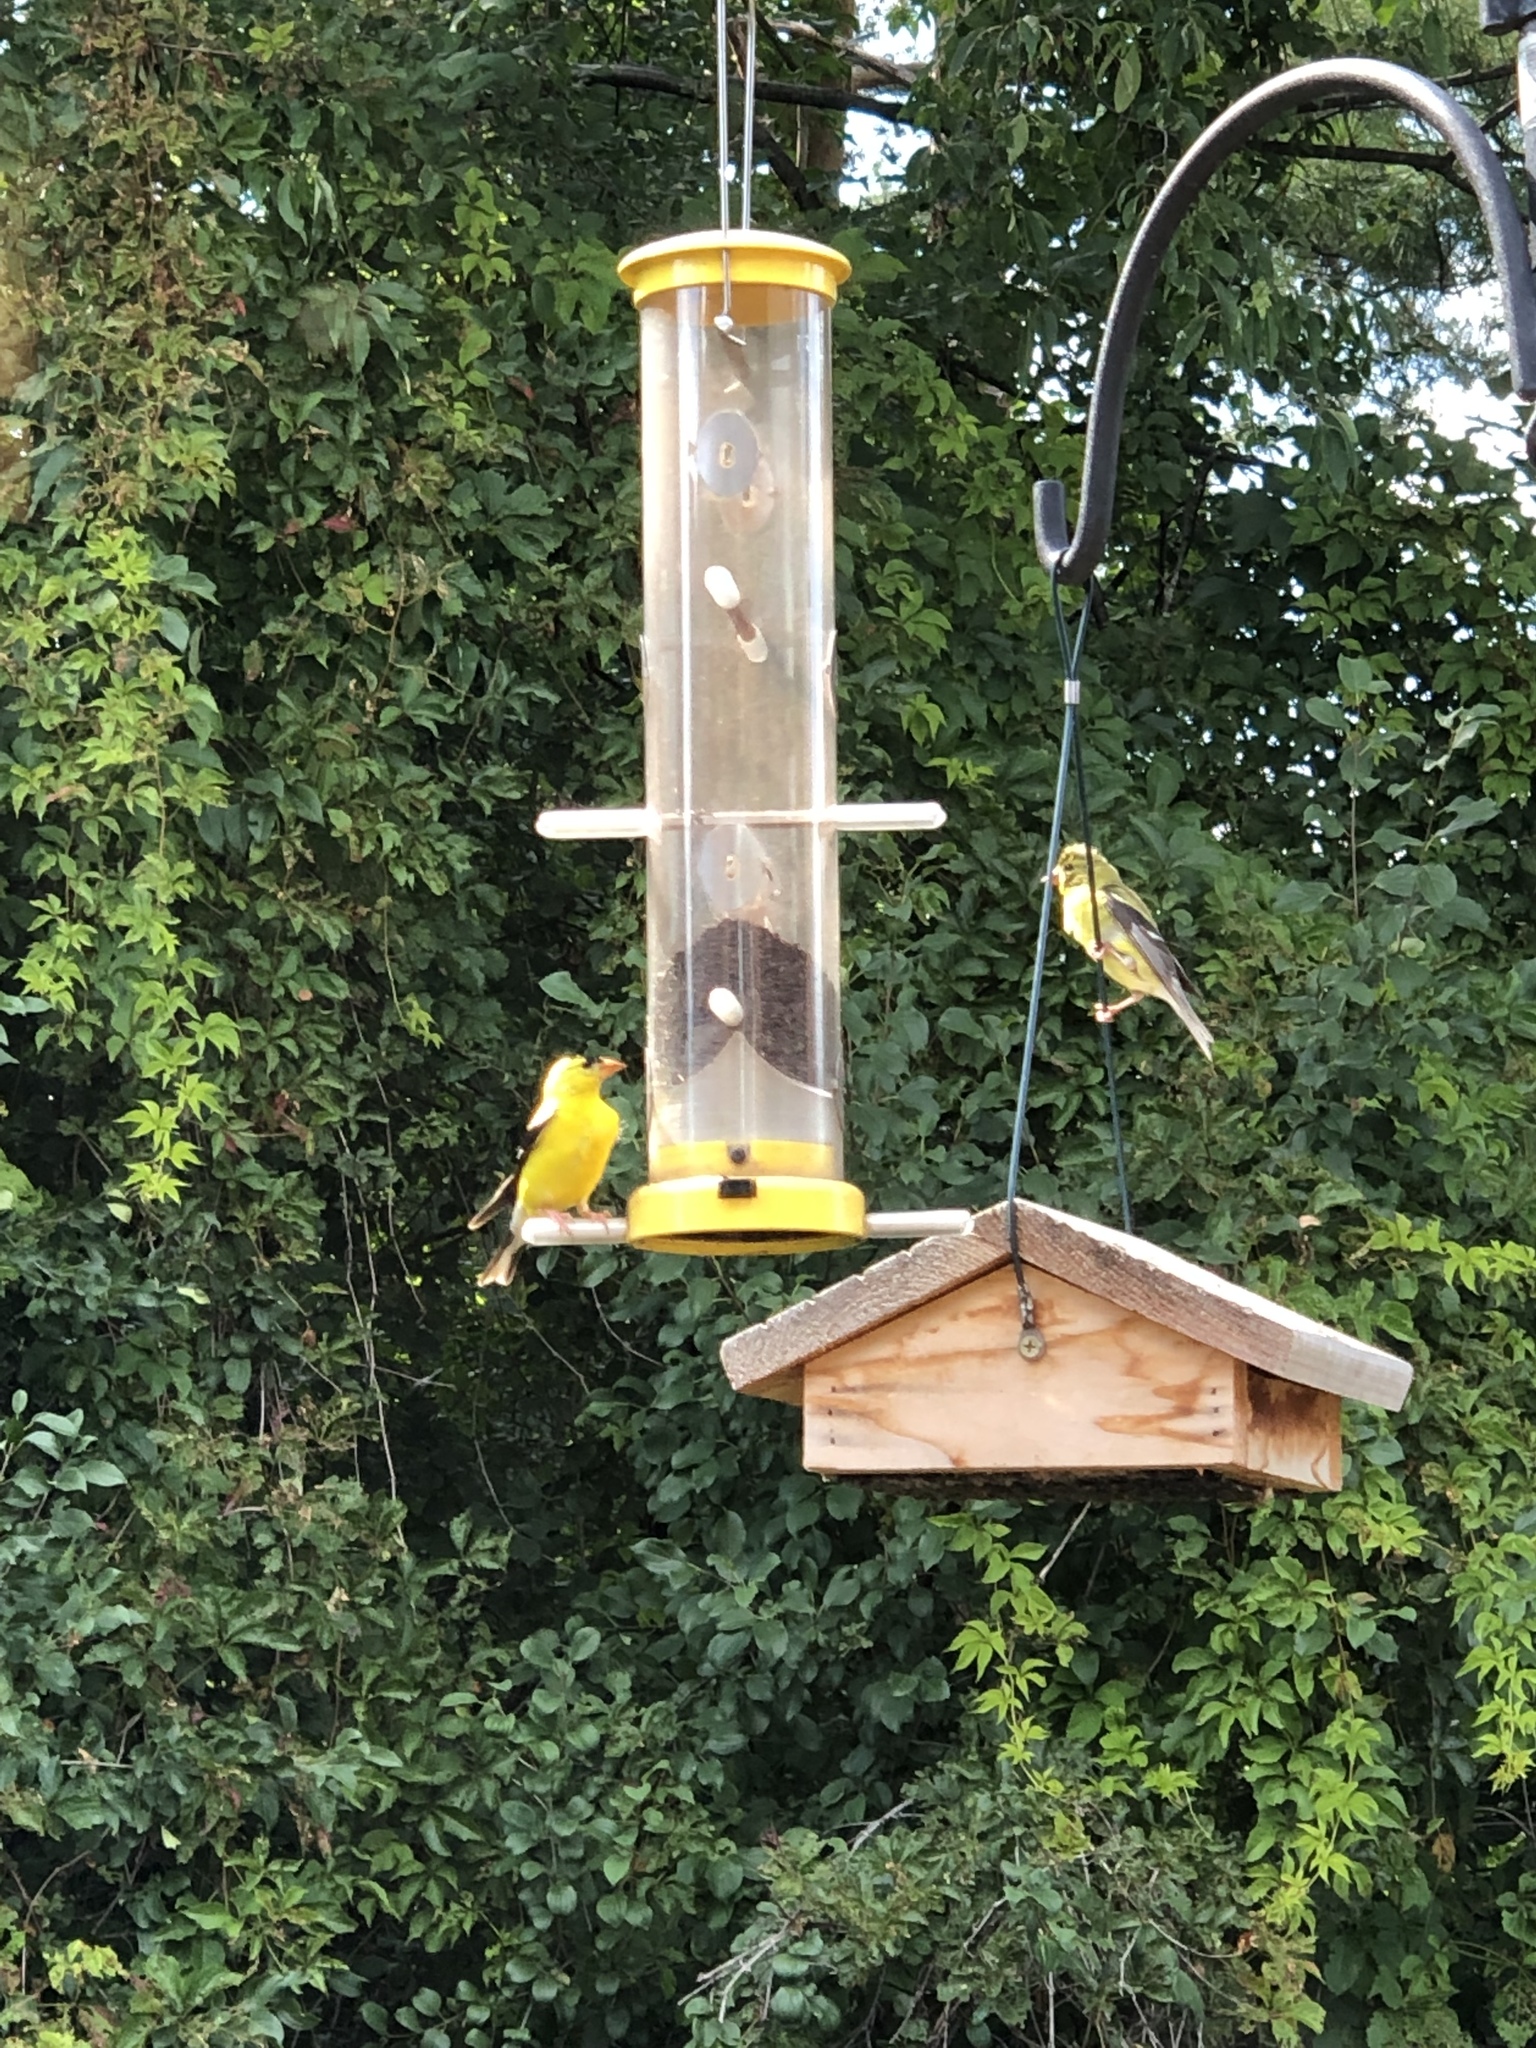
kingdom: Animalia
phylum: Chordata
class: Aves
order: Passeriformes
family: Fringillidae
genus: Spinus
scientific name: Spinus tristis
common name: American goldfinch
